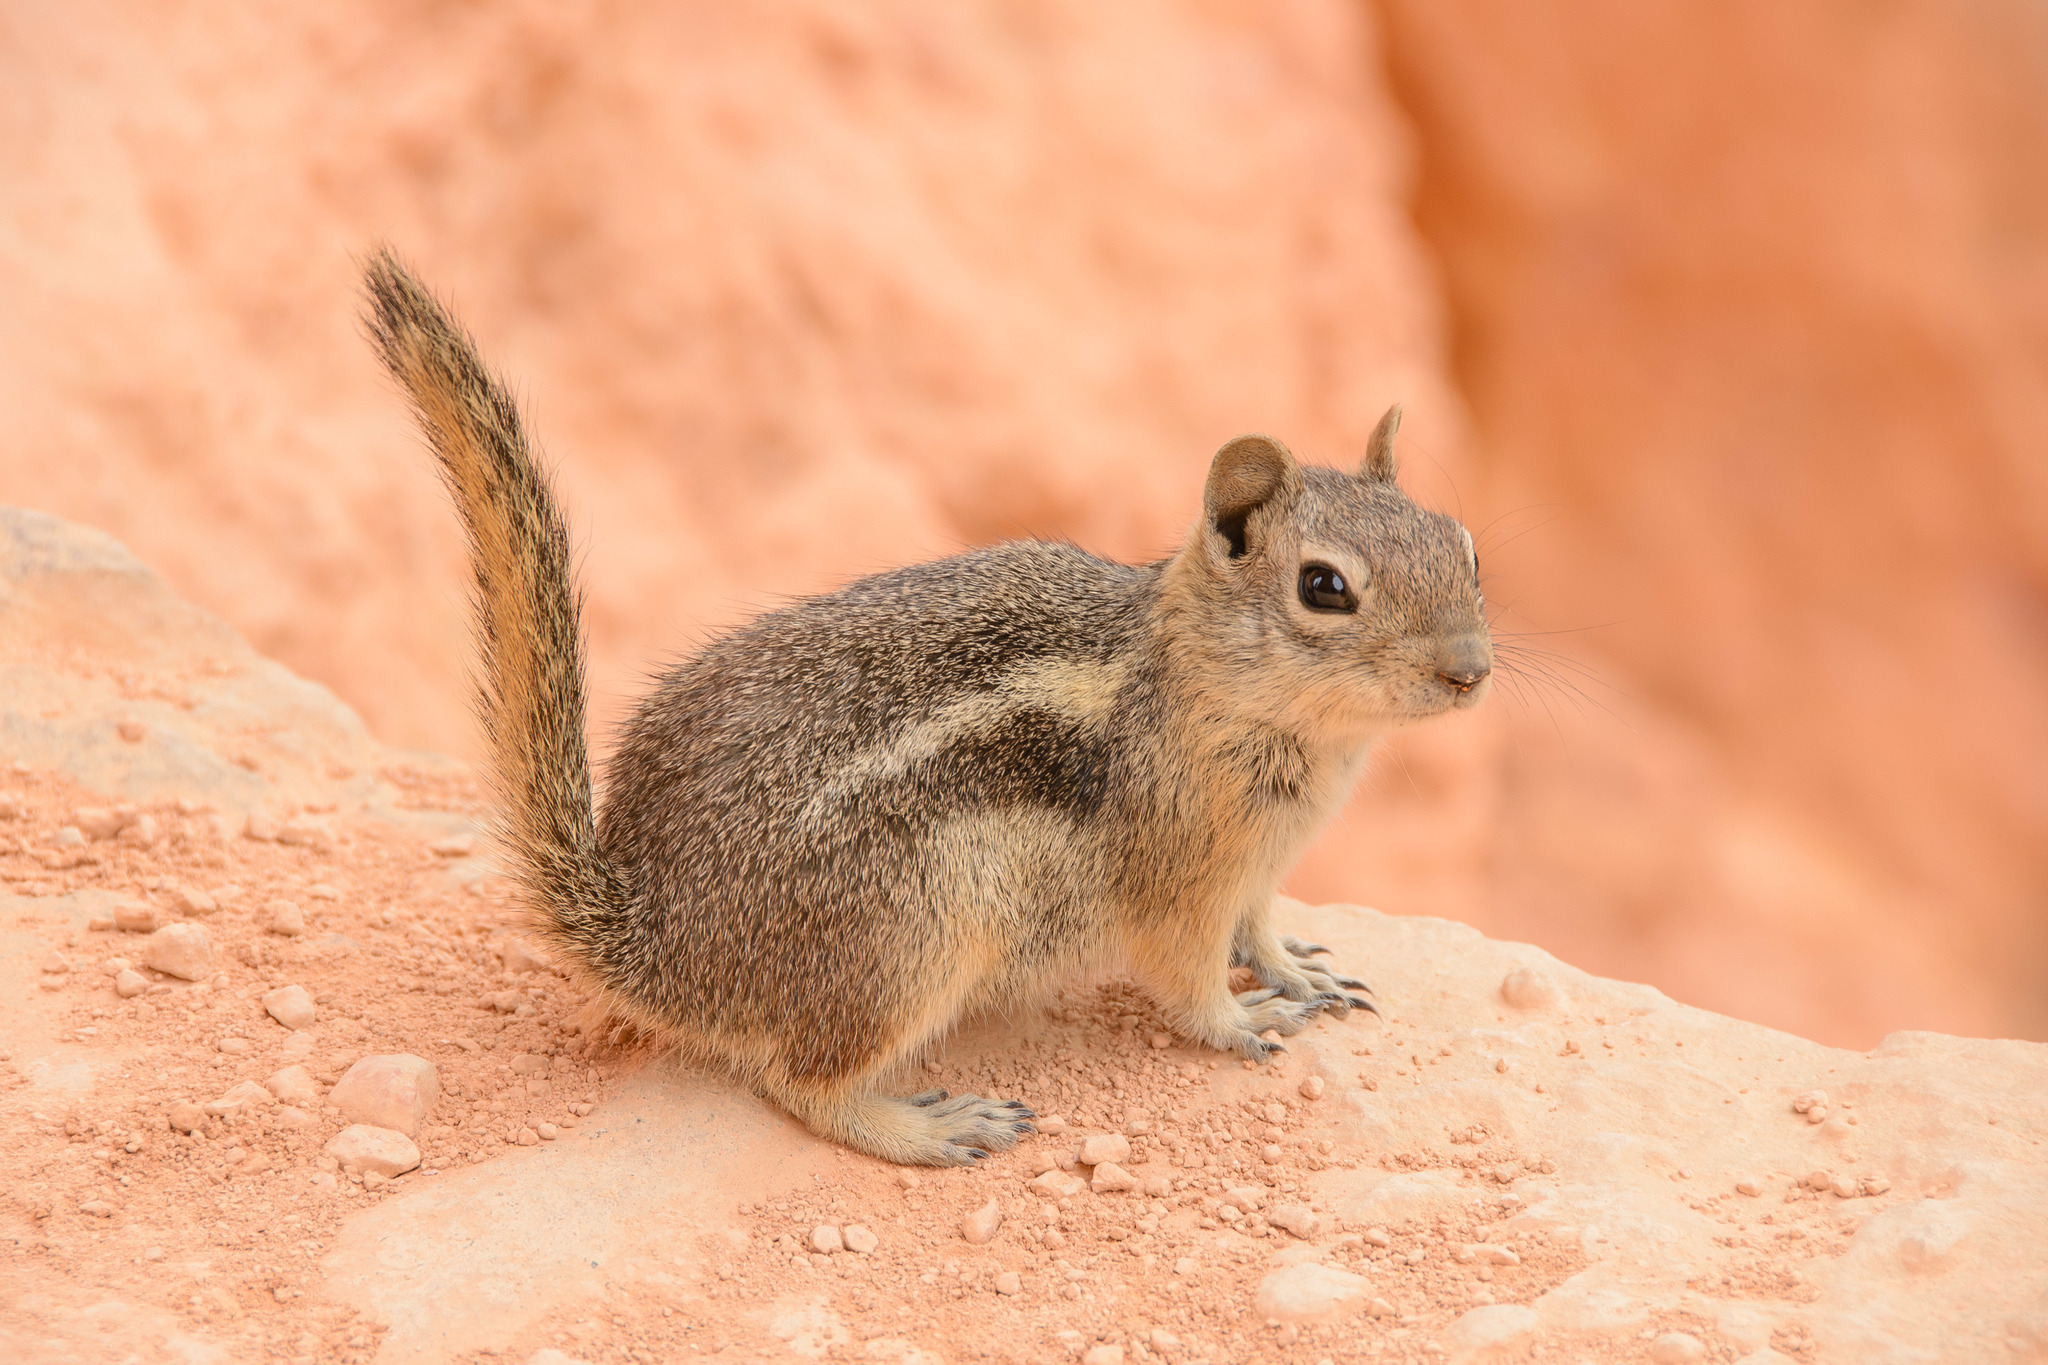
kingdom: Animalia
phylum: Chordata
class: Mammalia
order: Rodentia
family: Sciuridae
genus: Callospermophilus
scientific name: Callospermophilus lateralis
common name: Golden-mantled ground squirrel
